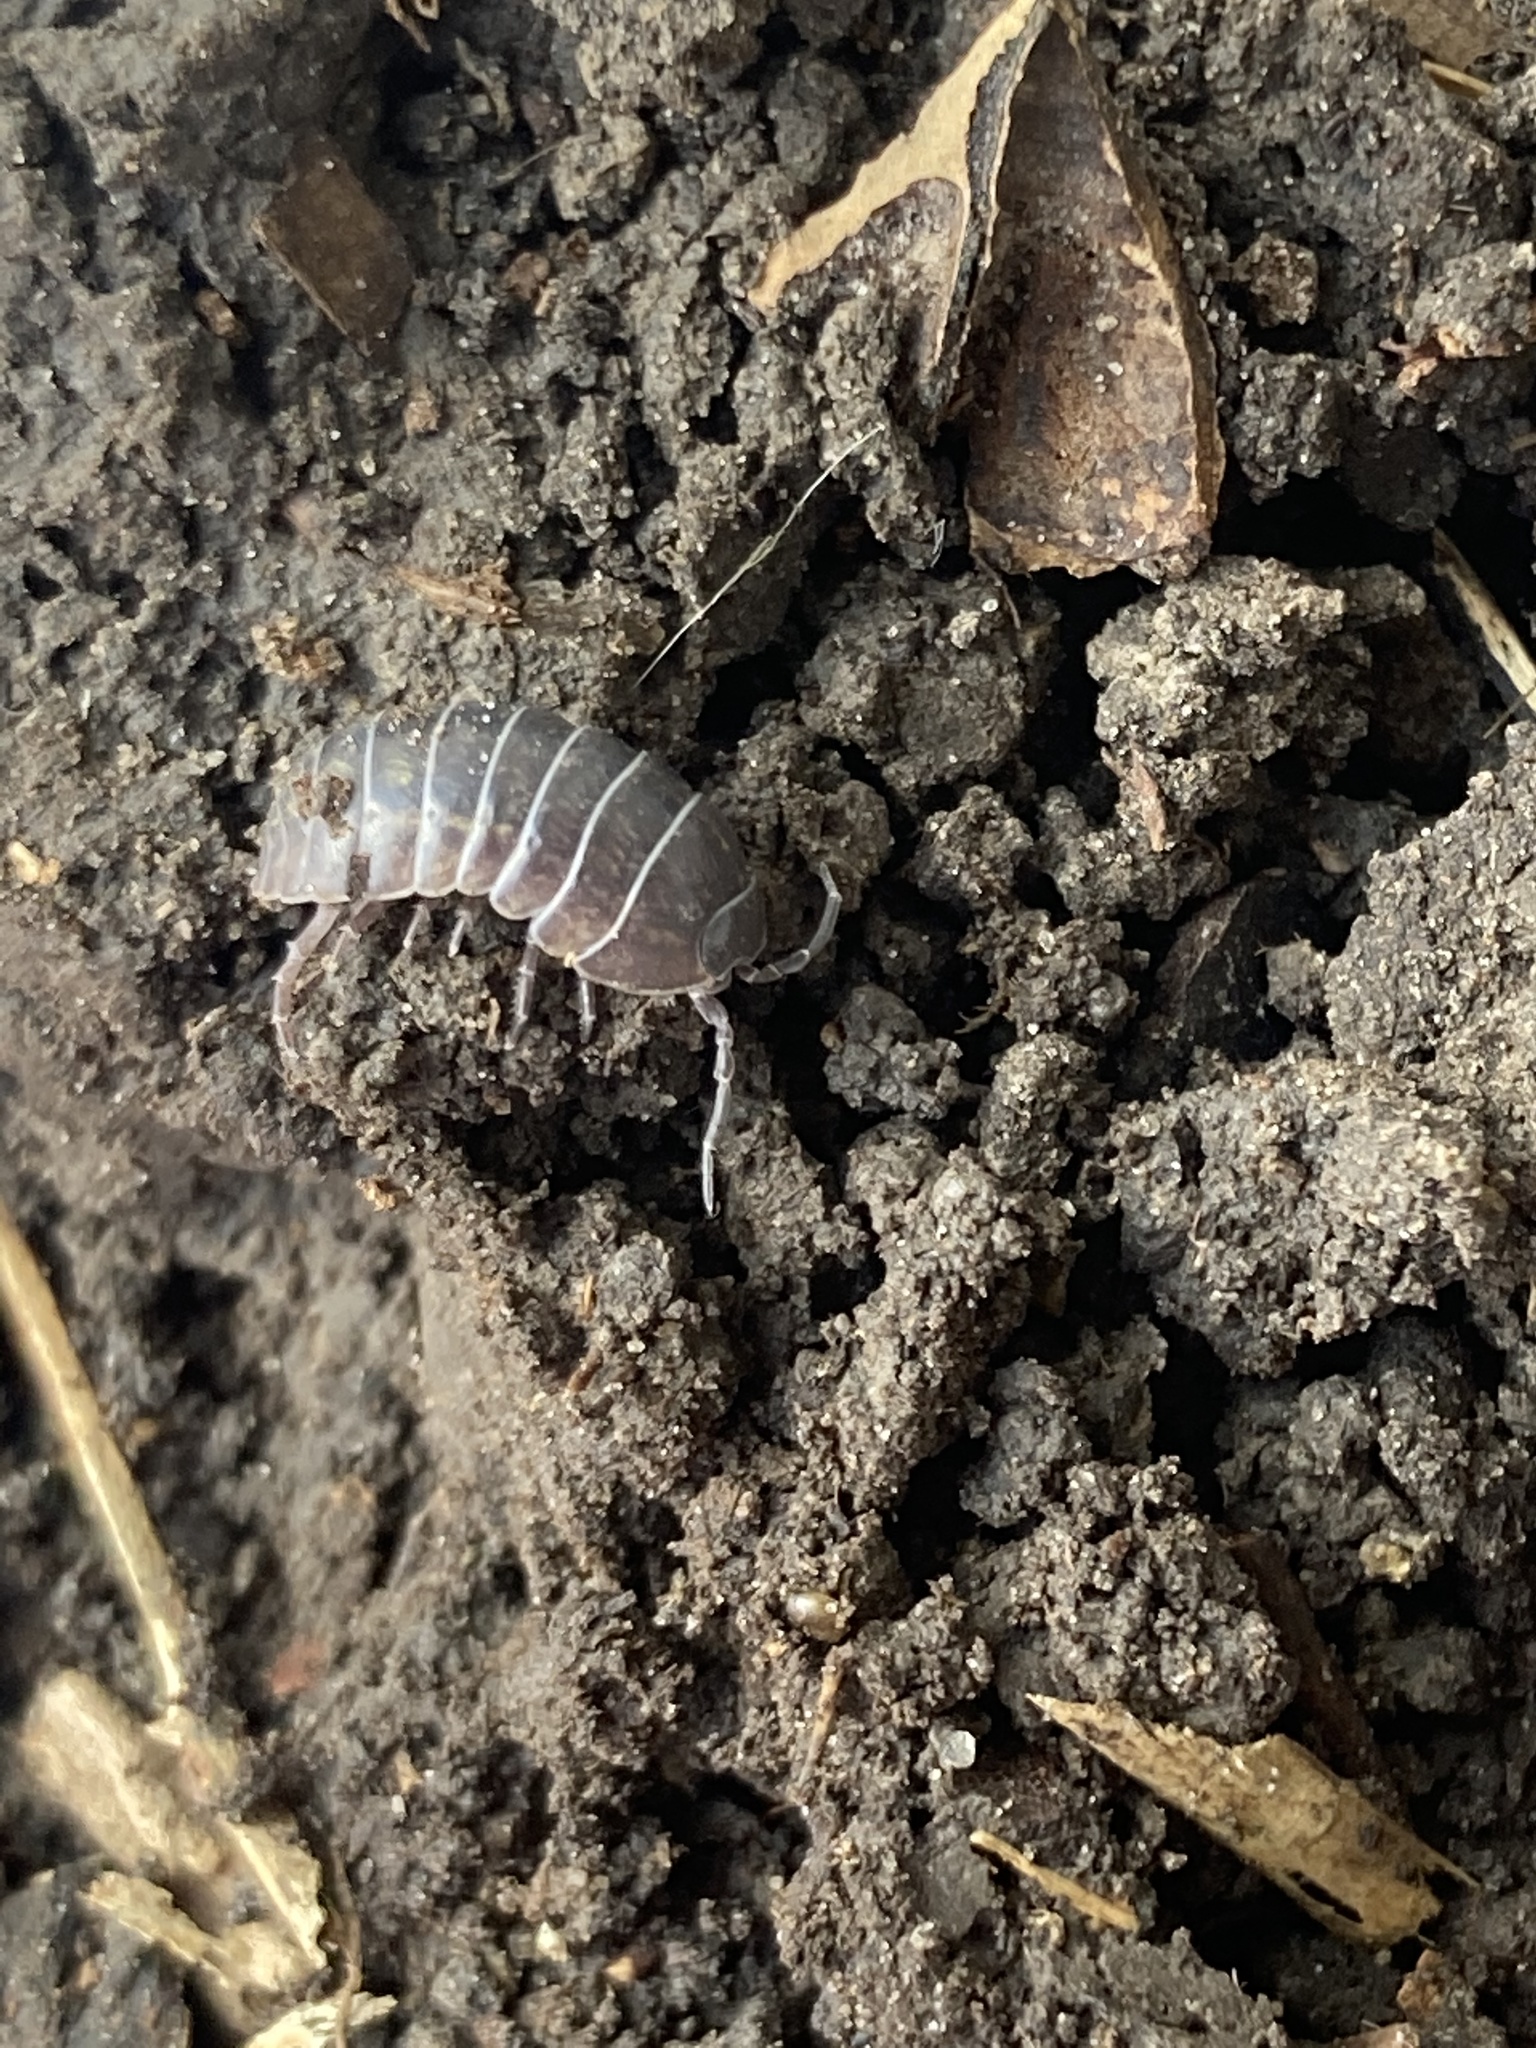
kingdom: Animalia
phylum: Arthropoda
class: Malacostraca
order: Isopoda
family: Armadillidiidae
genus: Armadillidium
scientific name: Armadillidium vulgare
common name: Common pill woodlouse
